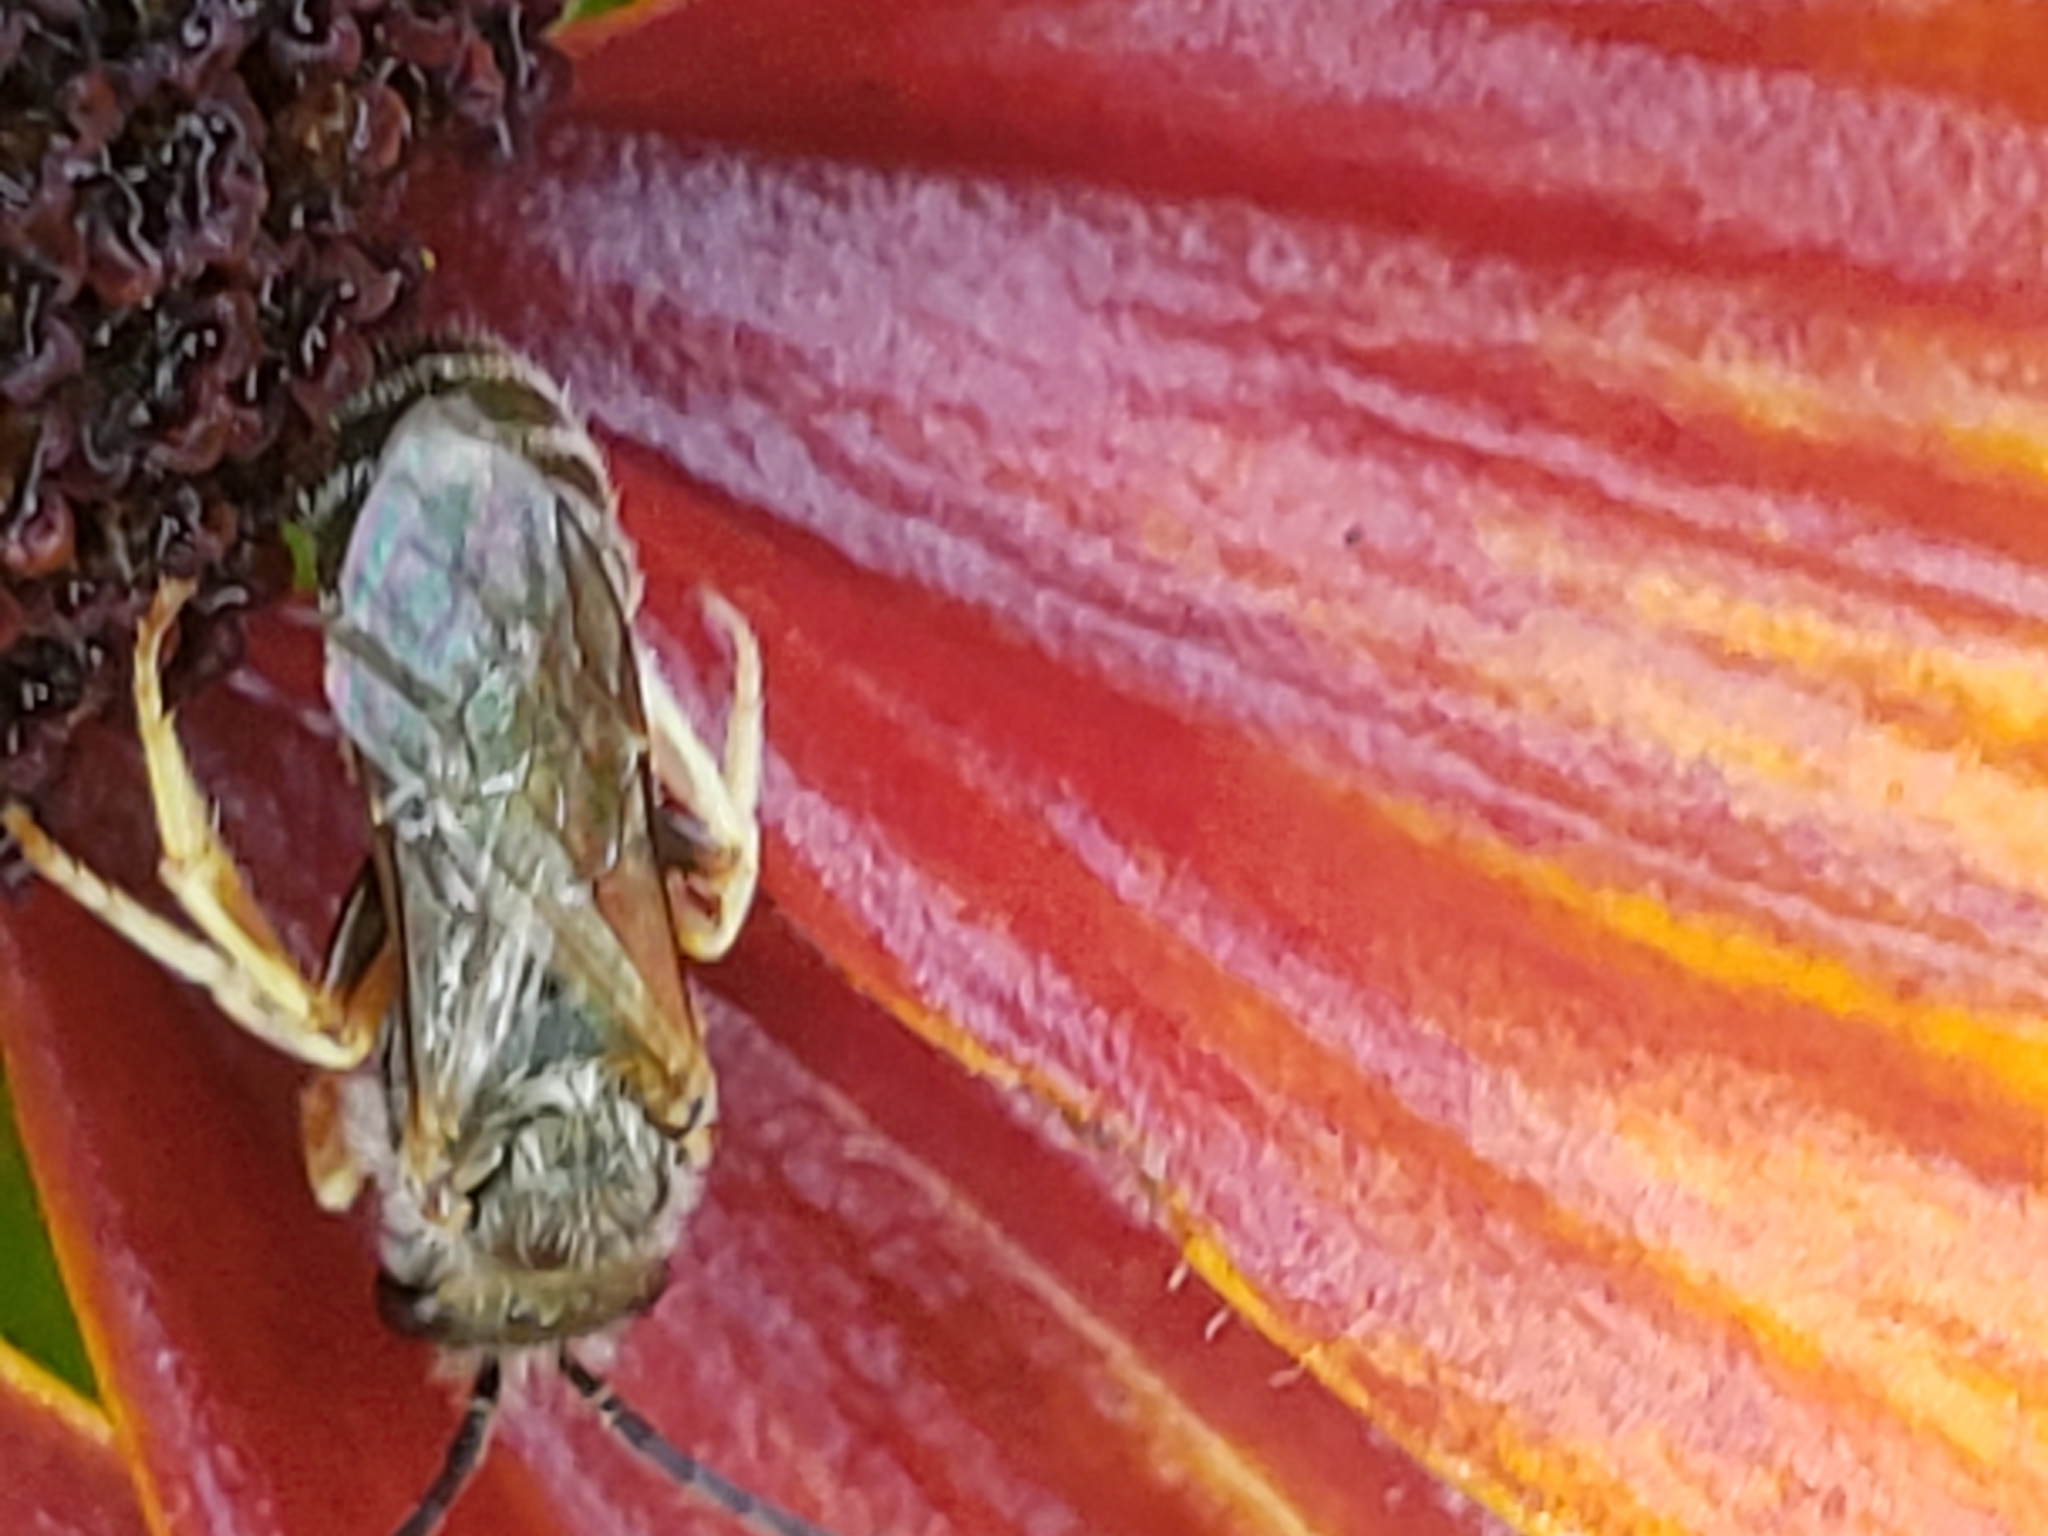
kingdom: Animalia
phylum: Arthropoda
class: Insecta
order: Hymenoptera
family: Halictidae
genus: Halictus
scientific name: Halictus confusus
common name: Southern bronze furrow bee
